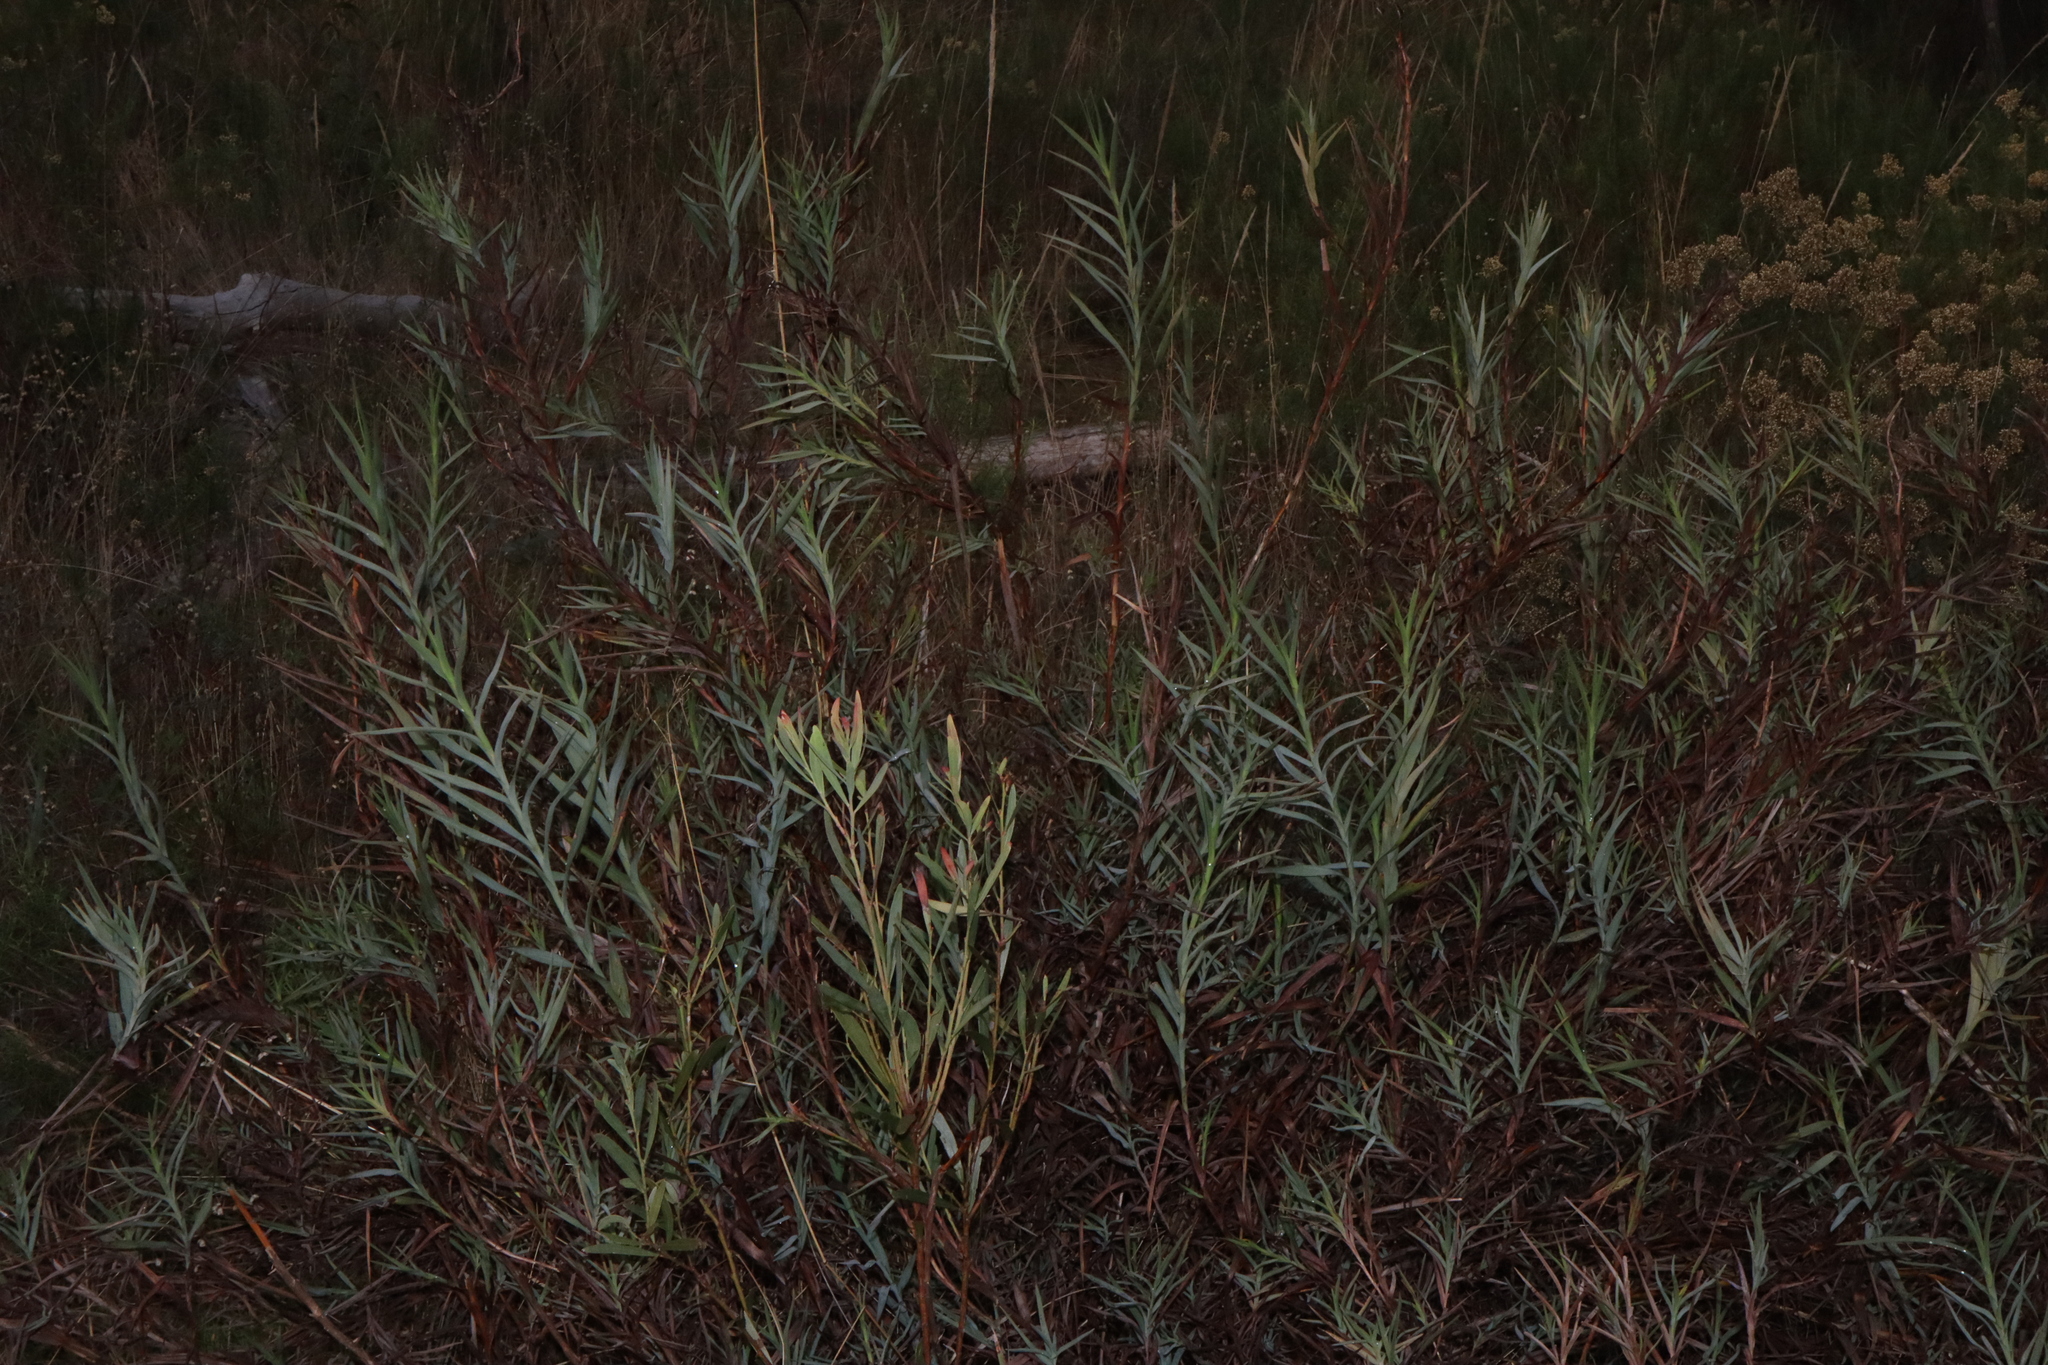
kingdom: Plantae
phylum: Tracheophyta
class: Liliopsida
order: Asparagales
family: Asphodelaceae
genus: Stypandra
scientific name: Stypandra glauca
